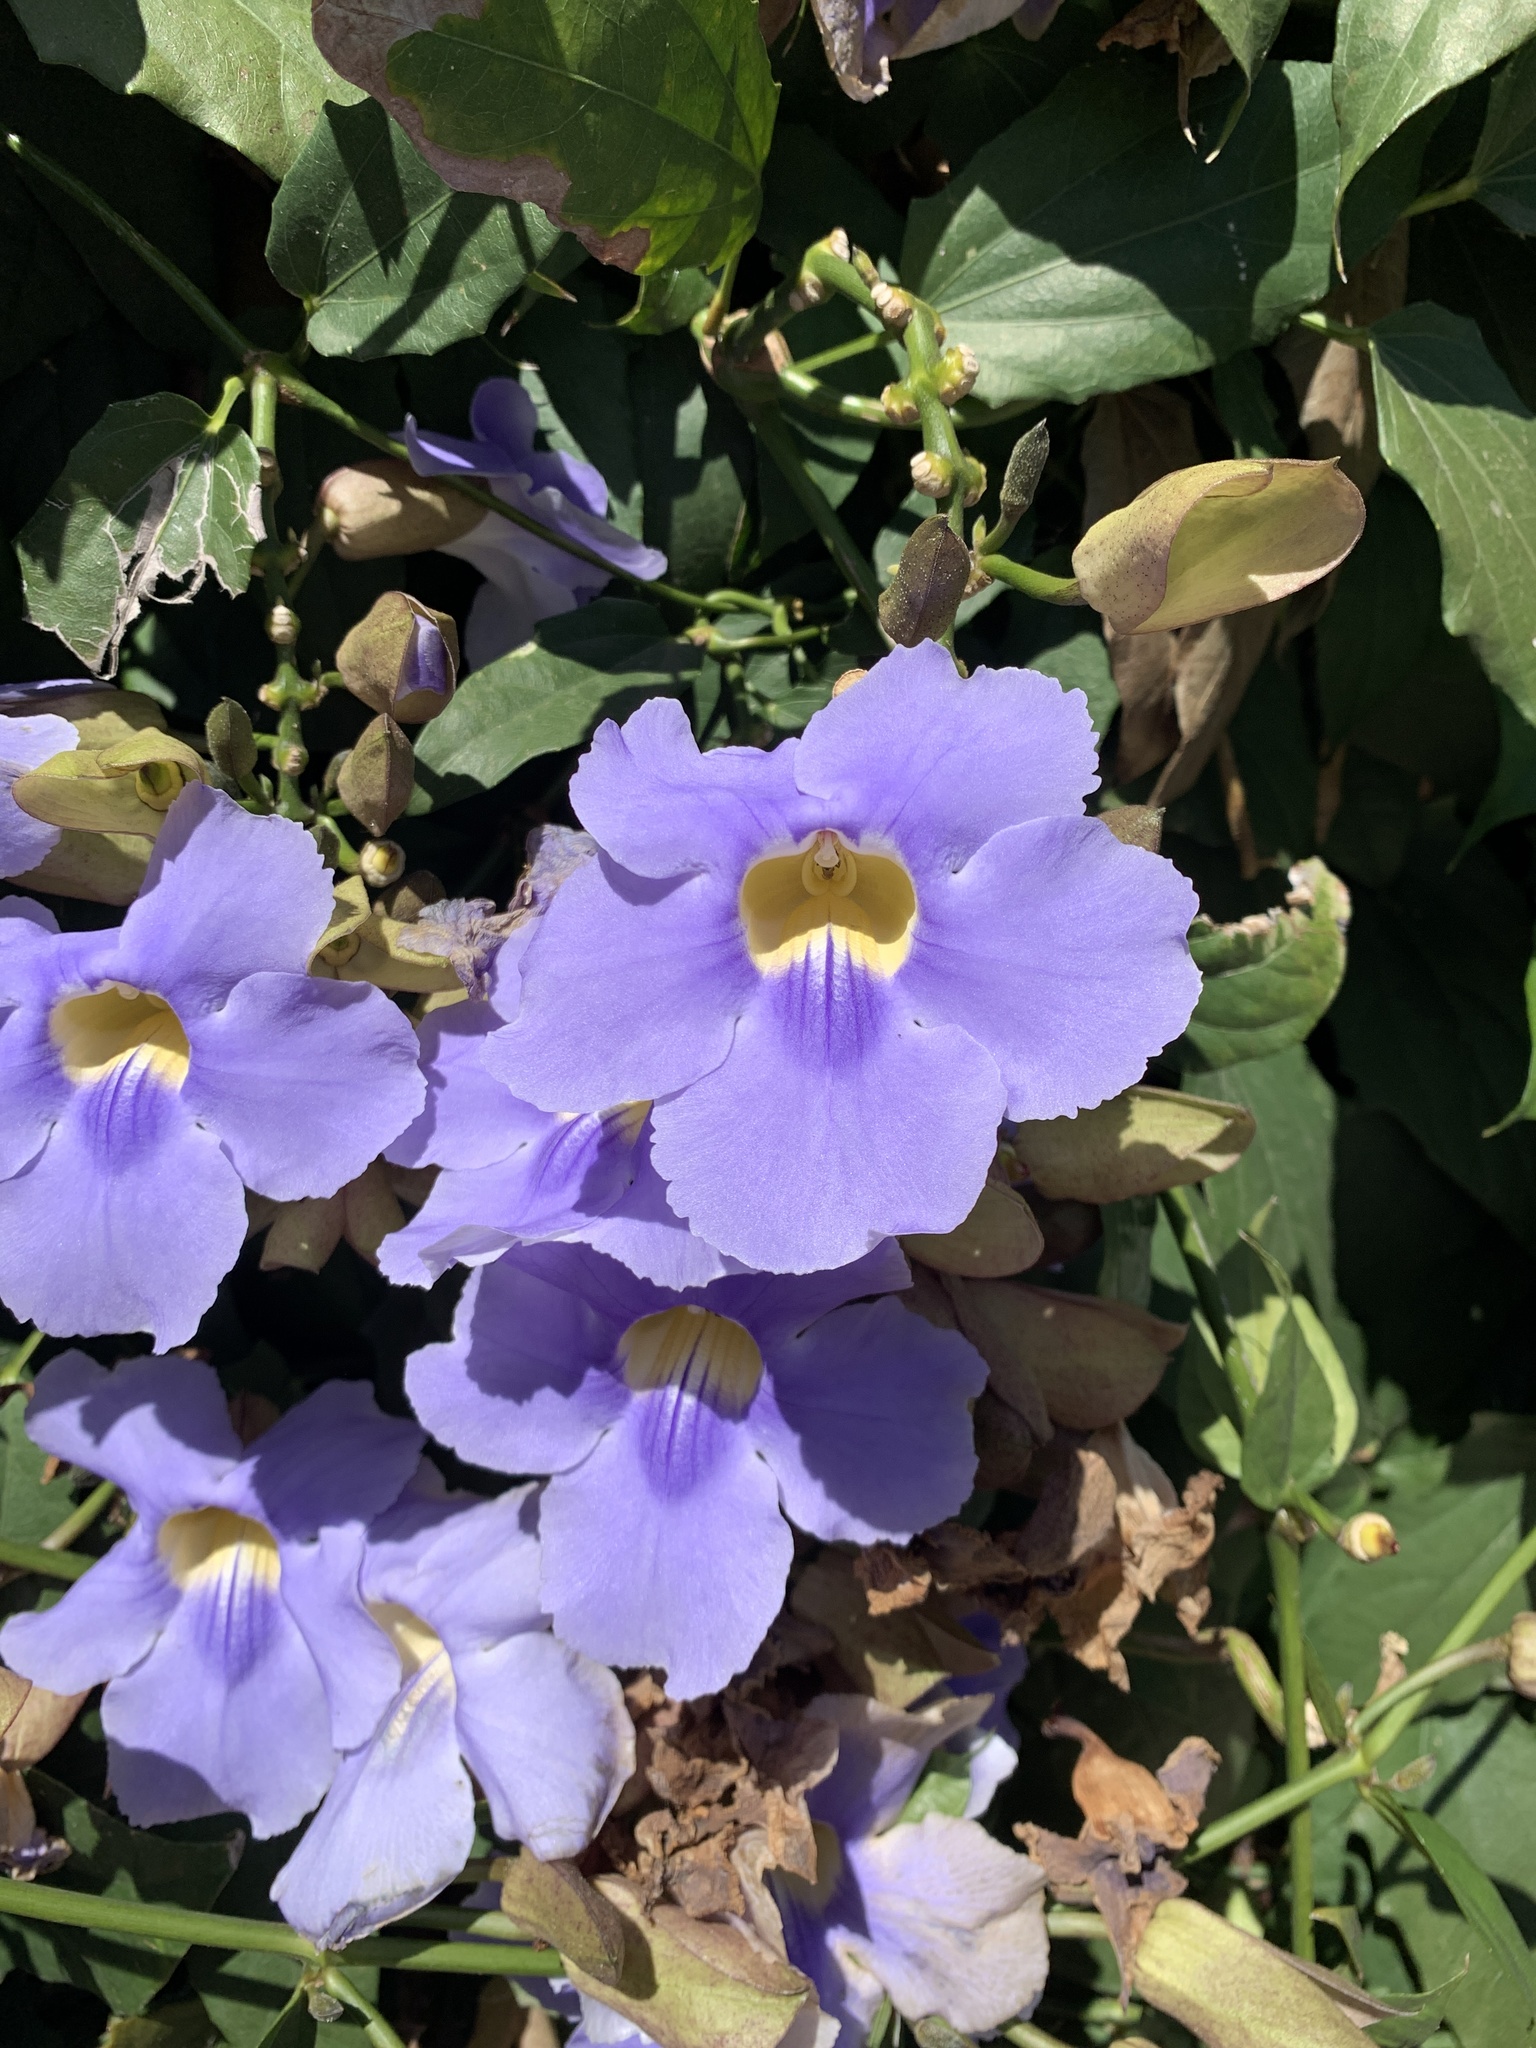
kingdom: Plantae
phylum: Tracheophyta
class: Magnoliopsida
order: Lamiales
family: Acanthaceae
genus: Thunbergia
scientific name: Thunbergia grandiflora
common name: Bengal trumpet
